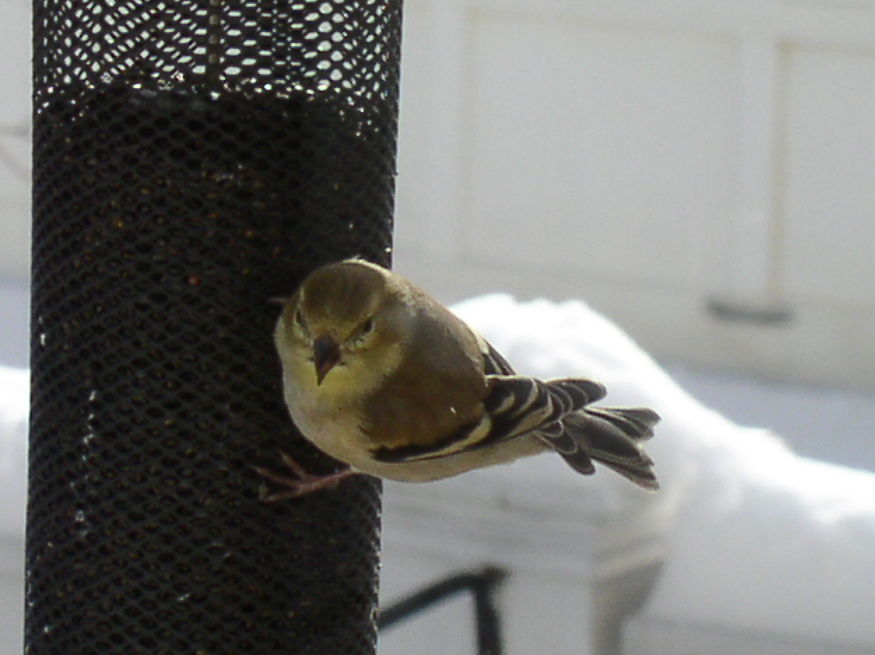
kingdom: Animalia
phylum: Chordata
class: Aves
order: Passeriformes
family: Fringillidae
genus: Spinus
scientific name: Spinus tristis
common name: American goldfinch
